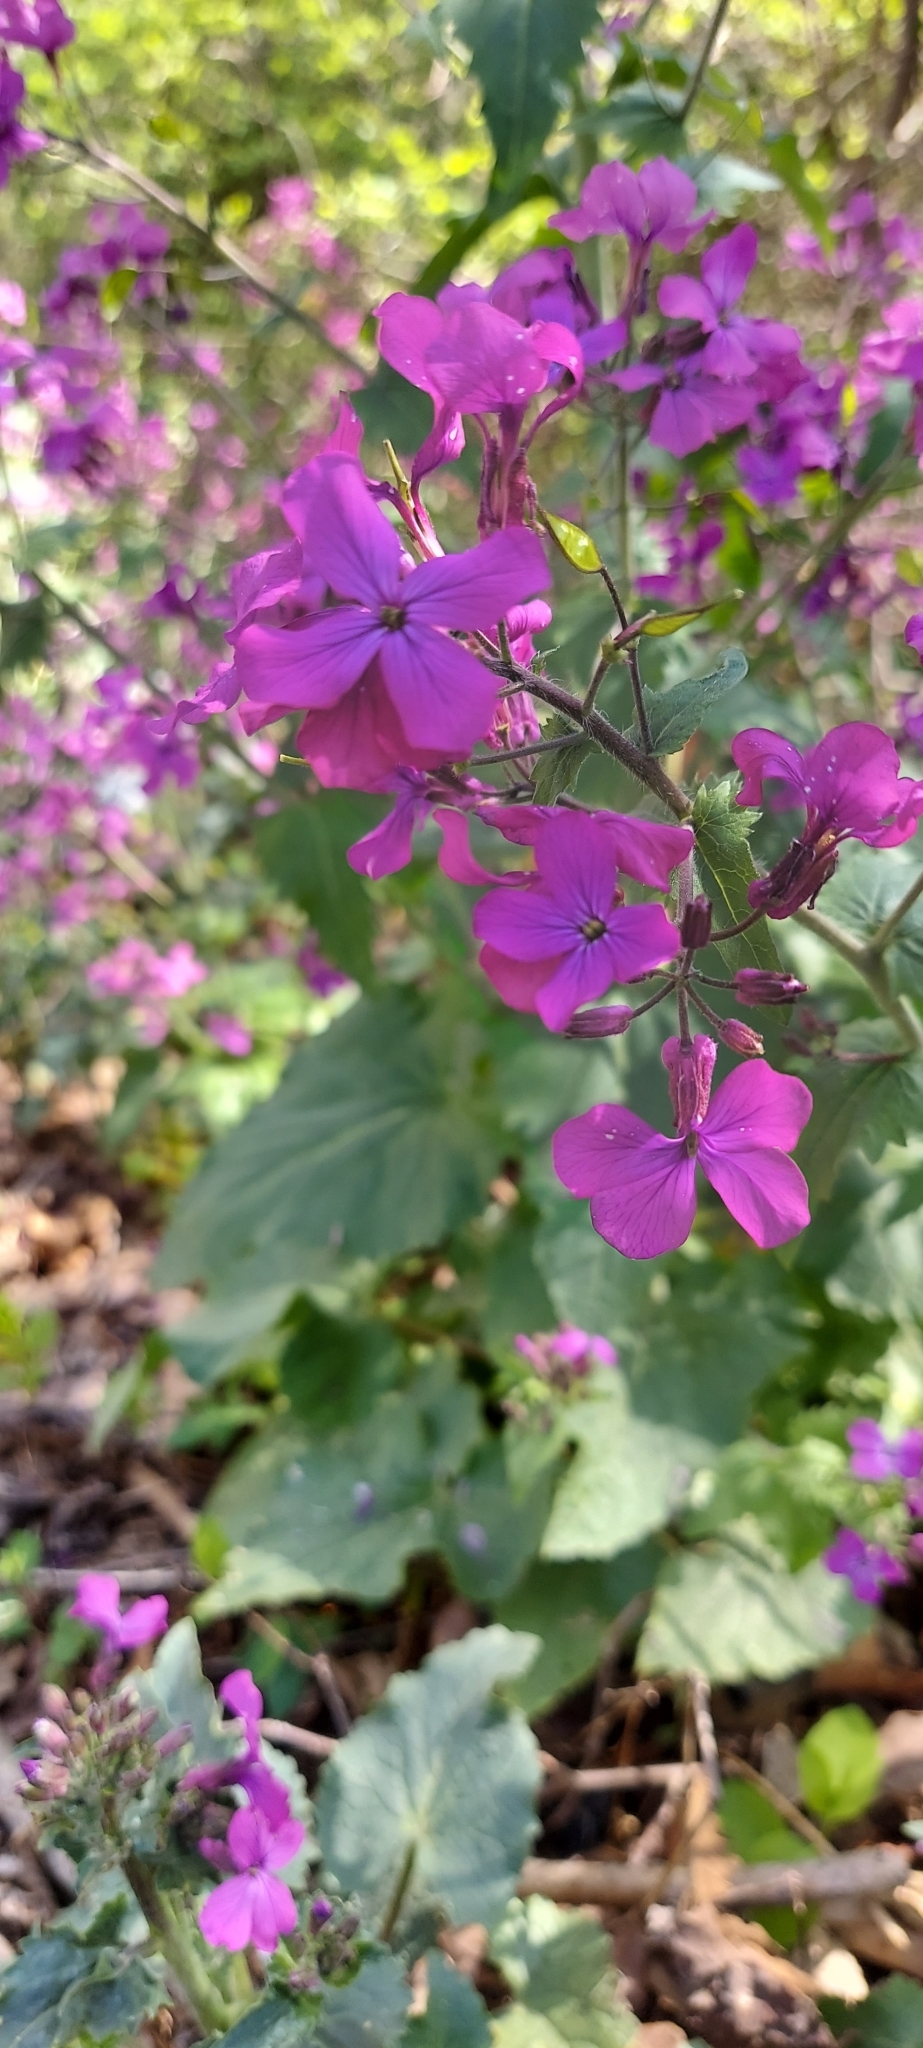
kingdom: Plantae
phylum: Tracheophyta
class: Magnoliopsida
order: Brassicales
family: Brassicaceae
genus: Lunaria
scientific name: Lunaria annua
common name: Honesty
